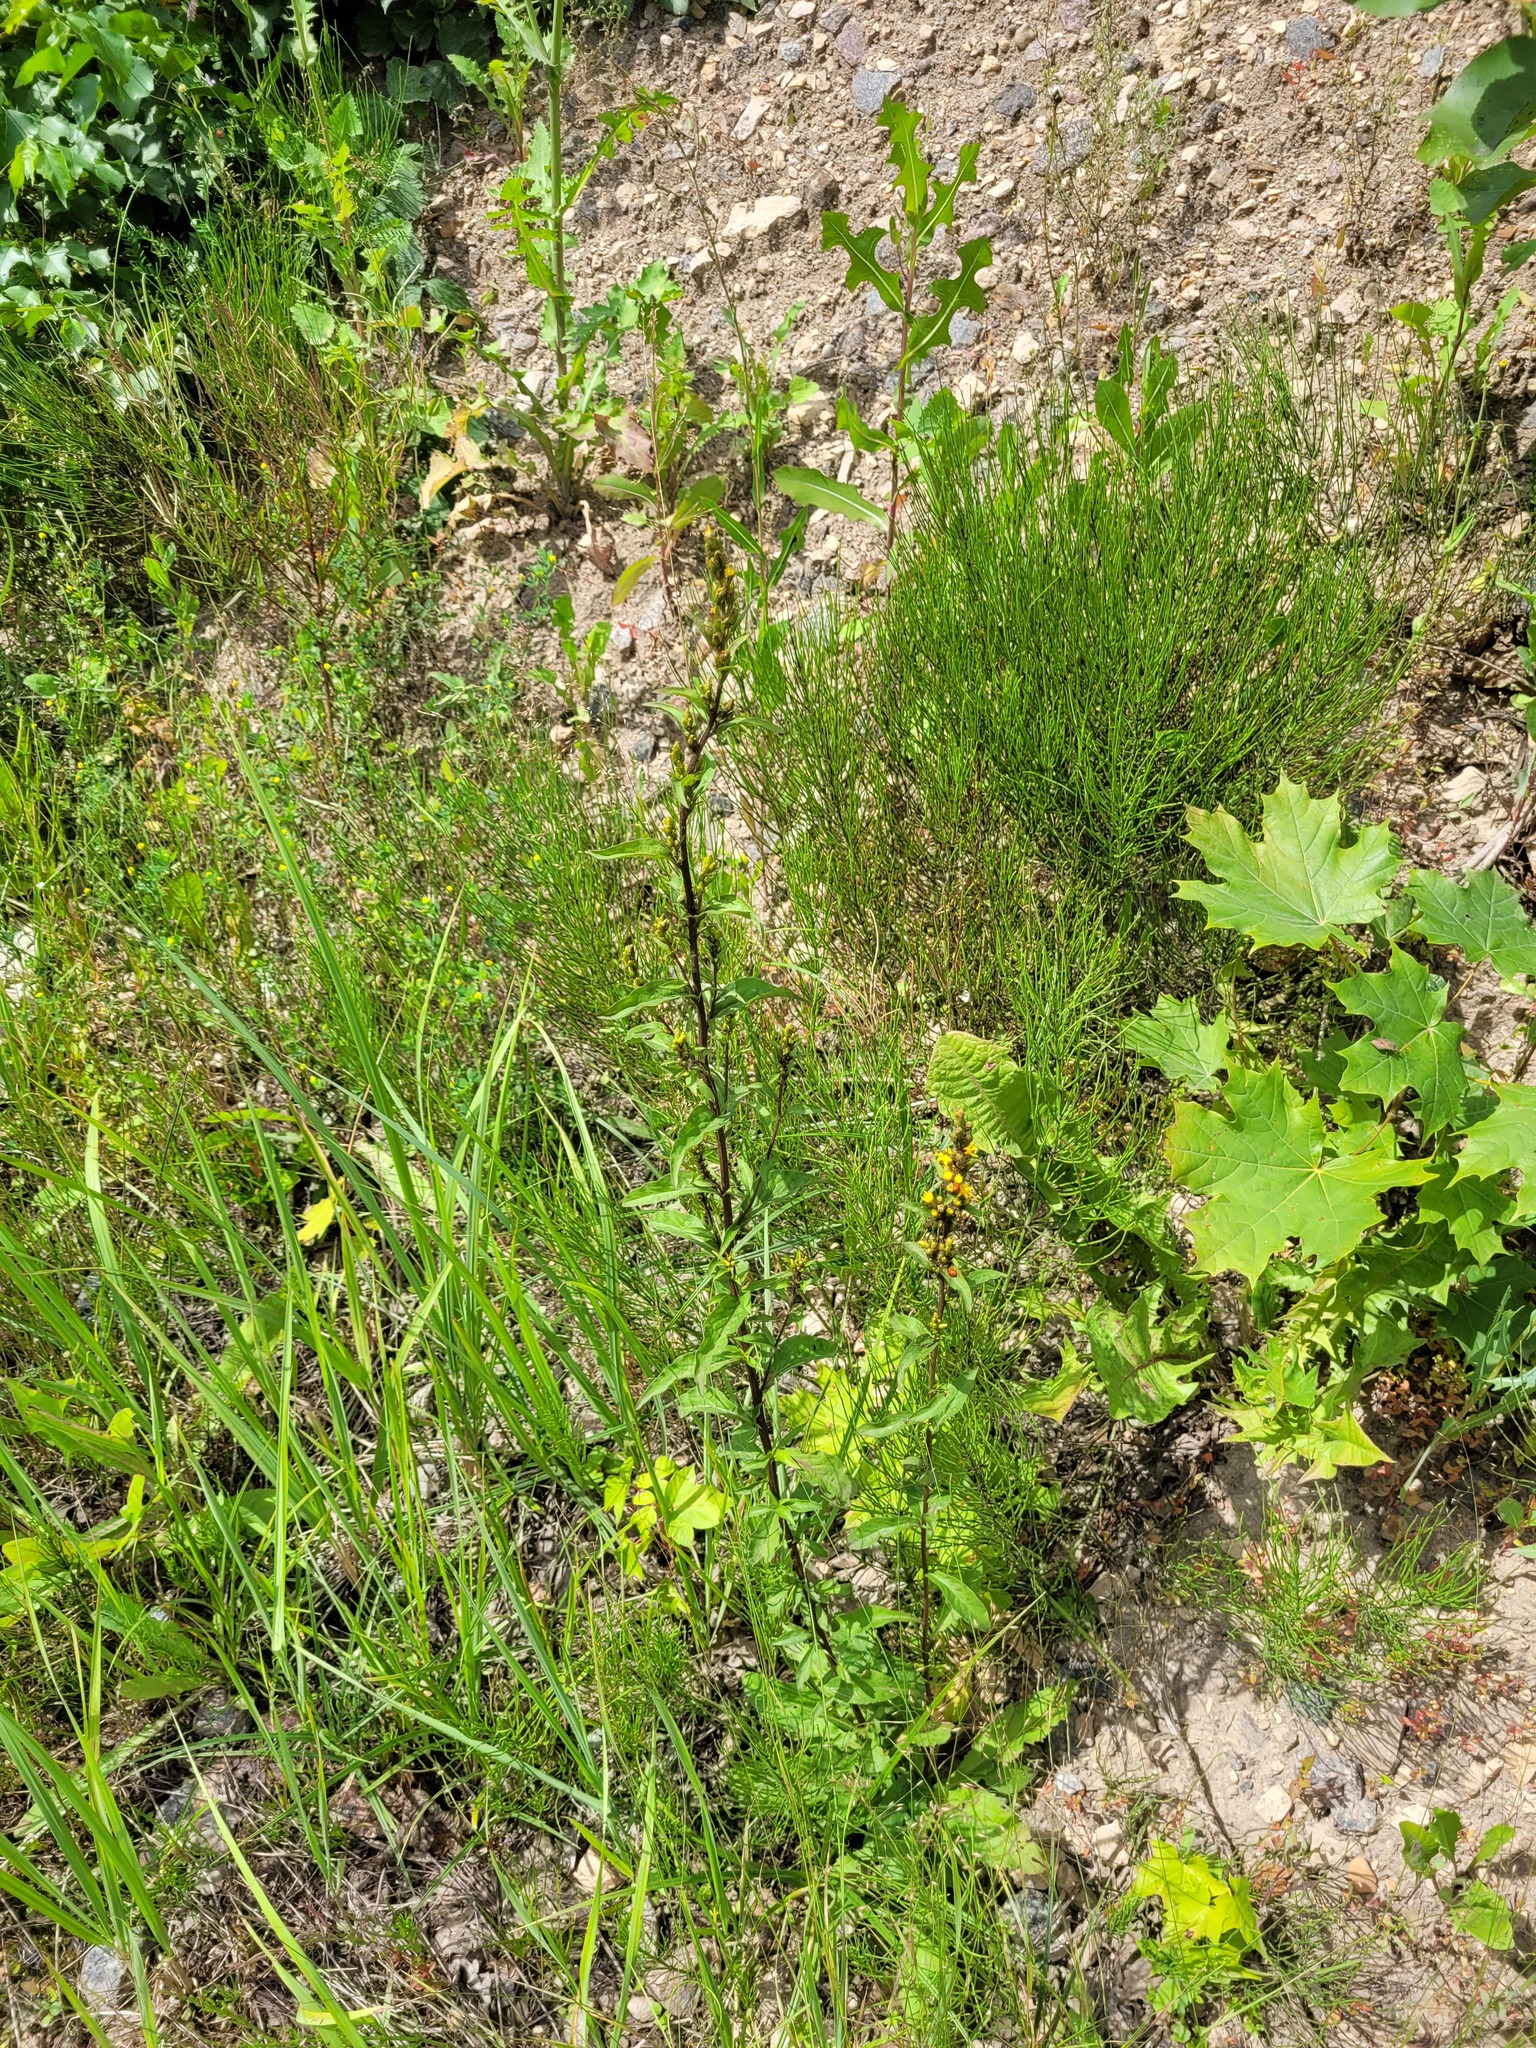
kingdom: Plantae
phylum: Tracheophyta
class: Magnoliopsida
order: Asterales
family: Asteraceae
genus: Solidago
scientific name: Solidago virgaurea
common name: Goldenrod
